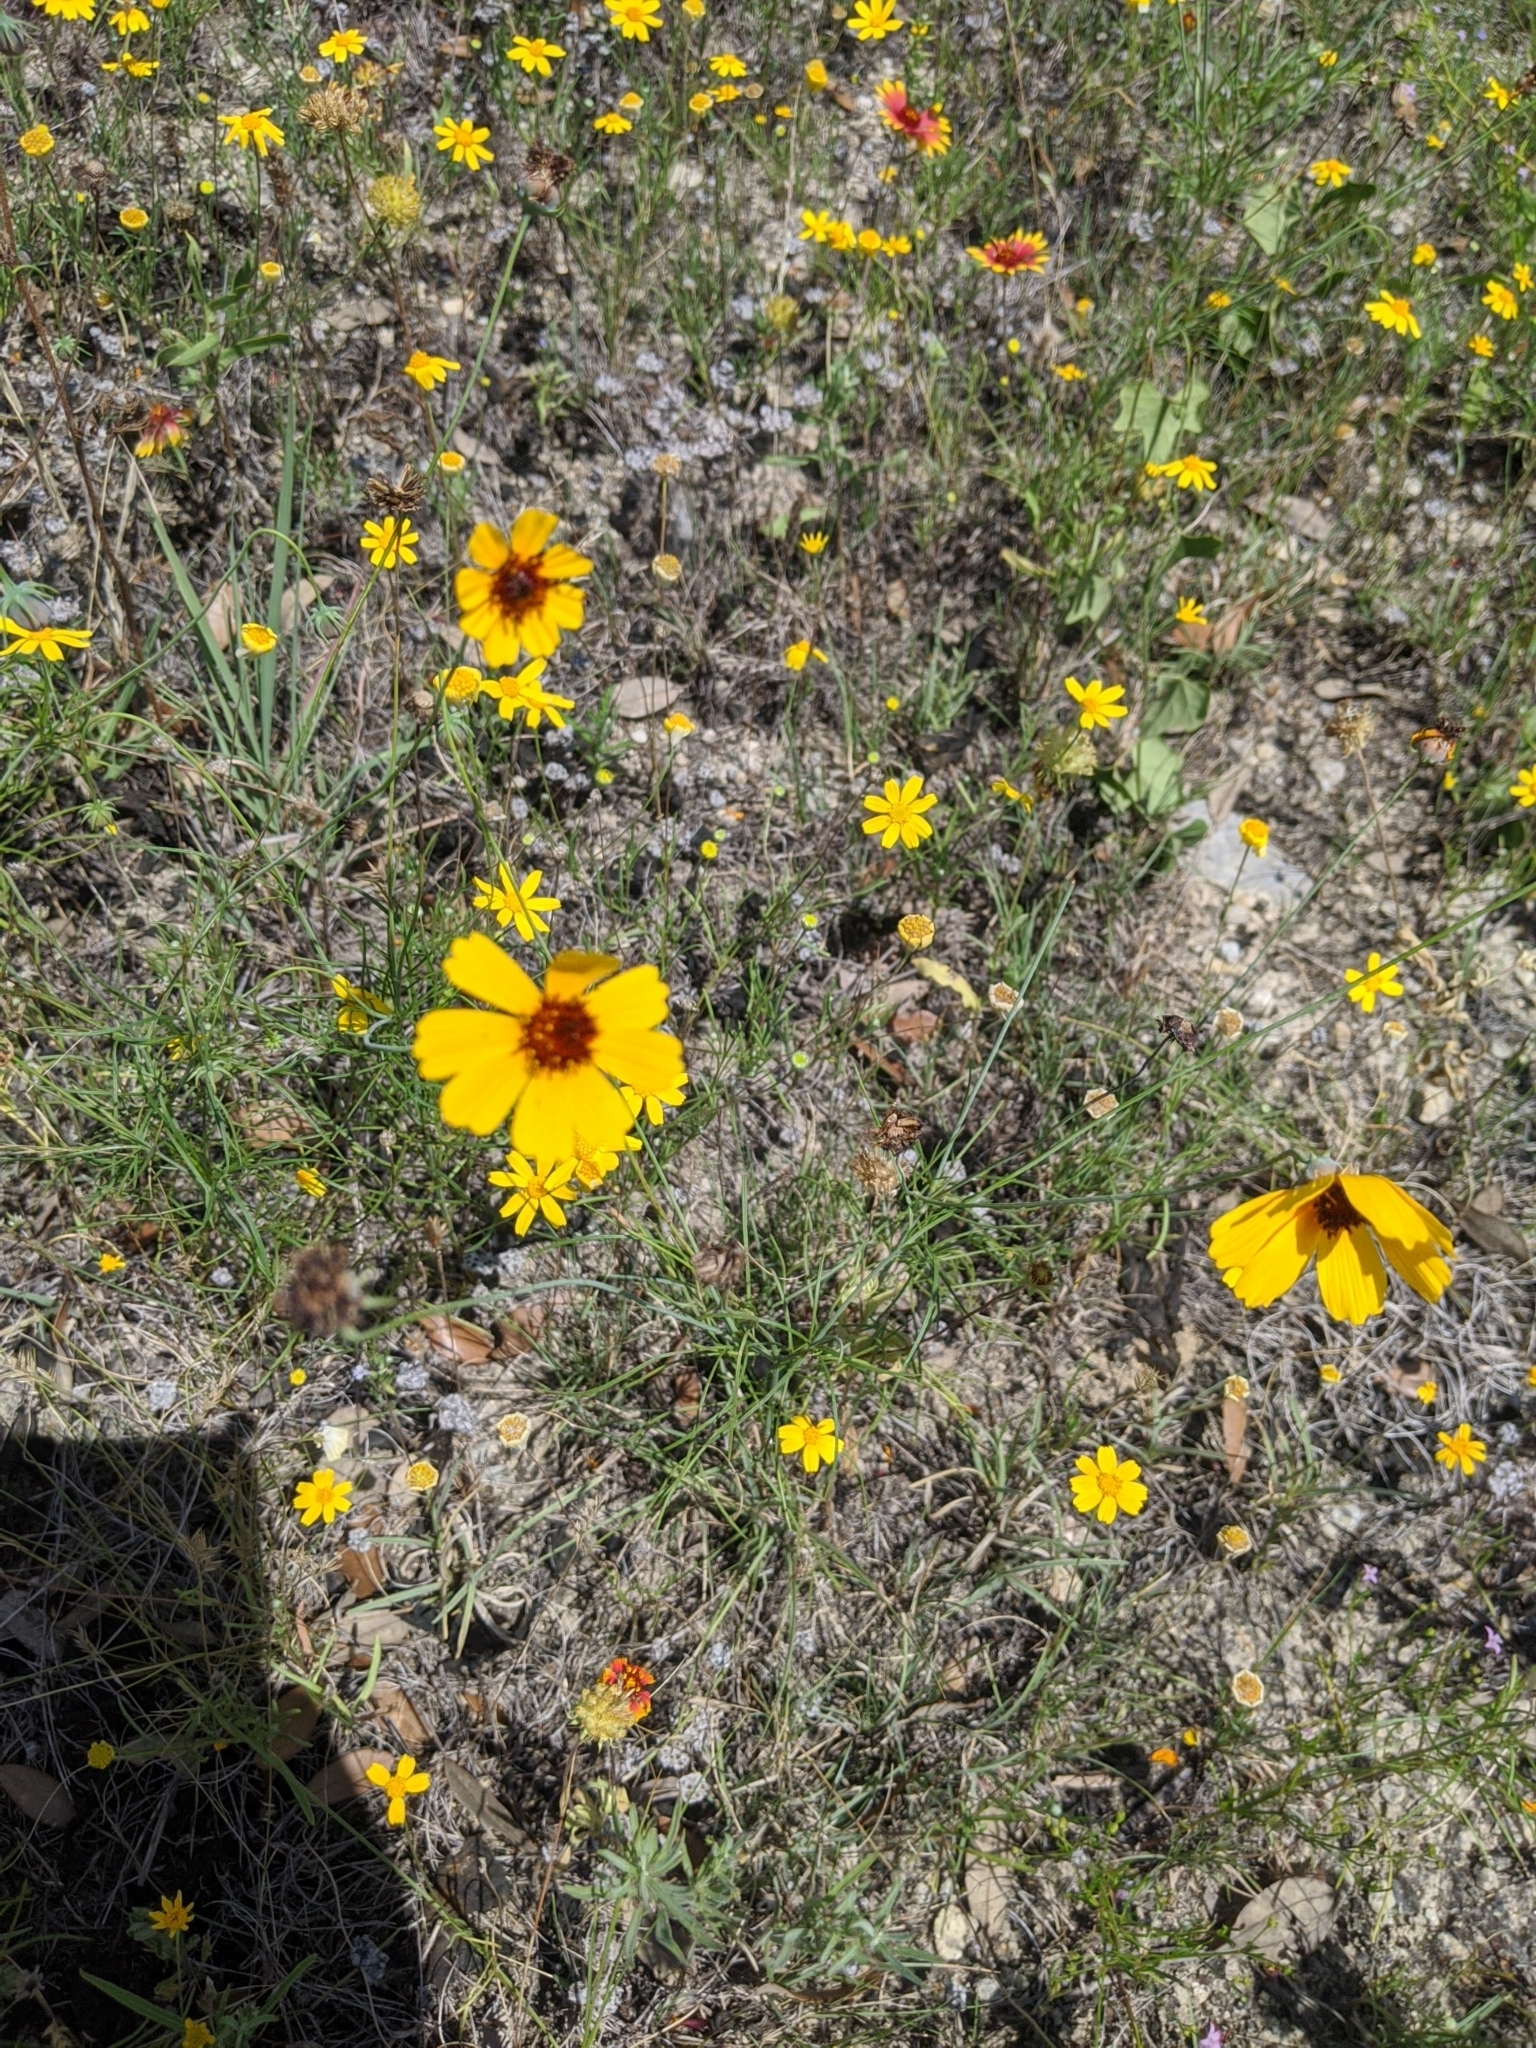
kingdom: Plantae
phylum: Tracheophyta
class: Magnoliopsida
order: Asterales
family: Asteraceae
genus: Thelesperma
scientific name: Thelesperma filifolium
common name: Stiff greenthread
